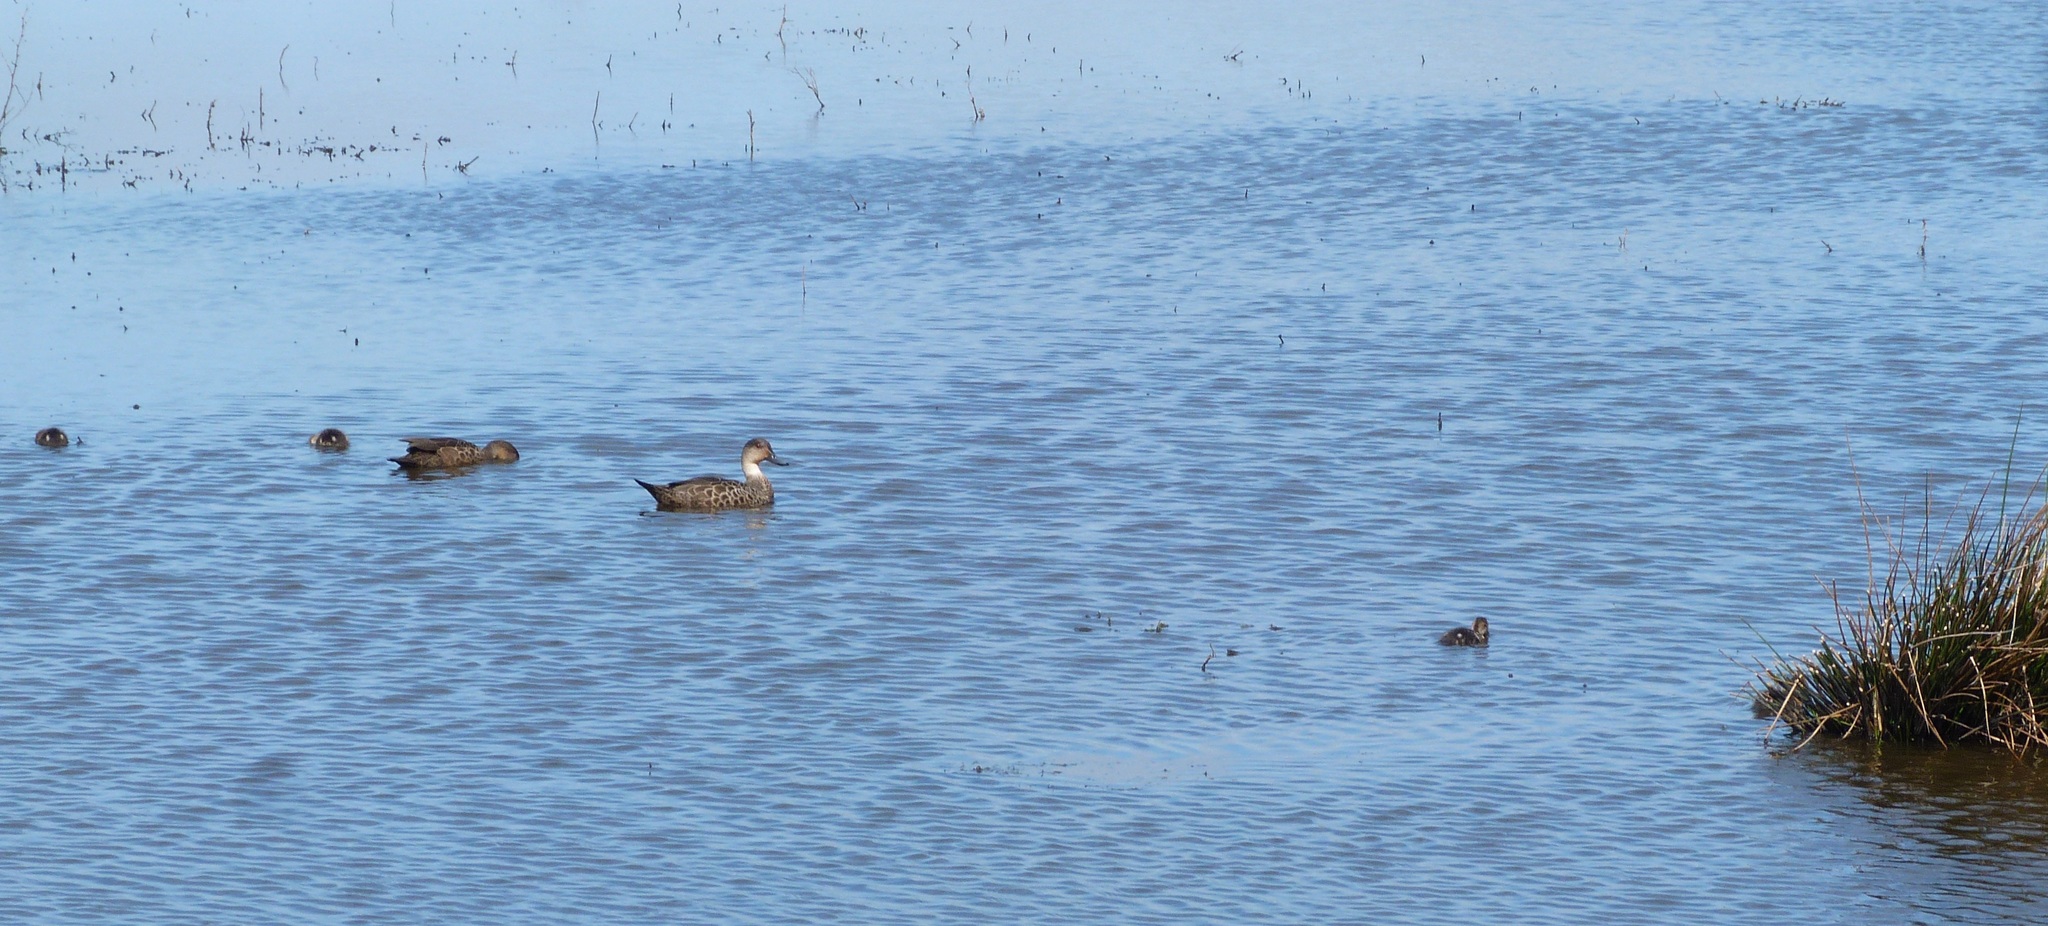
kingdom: Animalia
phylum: Chordata
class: Aves
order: Anseriformes
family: Anatidae
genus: Anas
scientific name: Anas gracilis
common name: Grey teal
